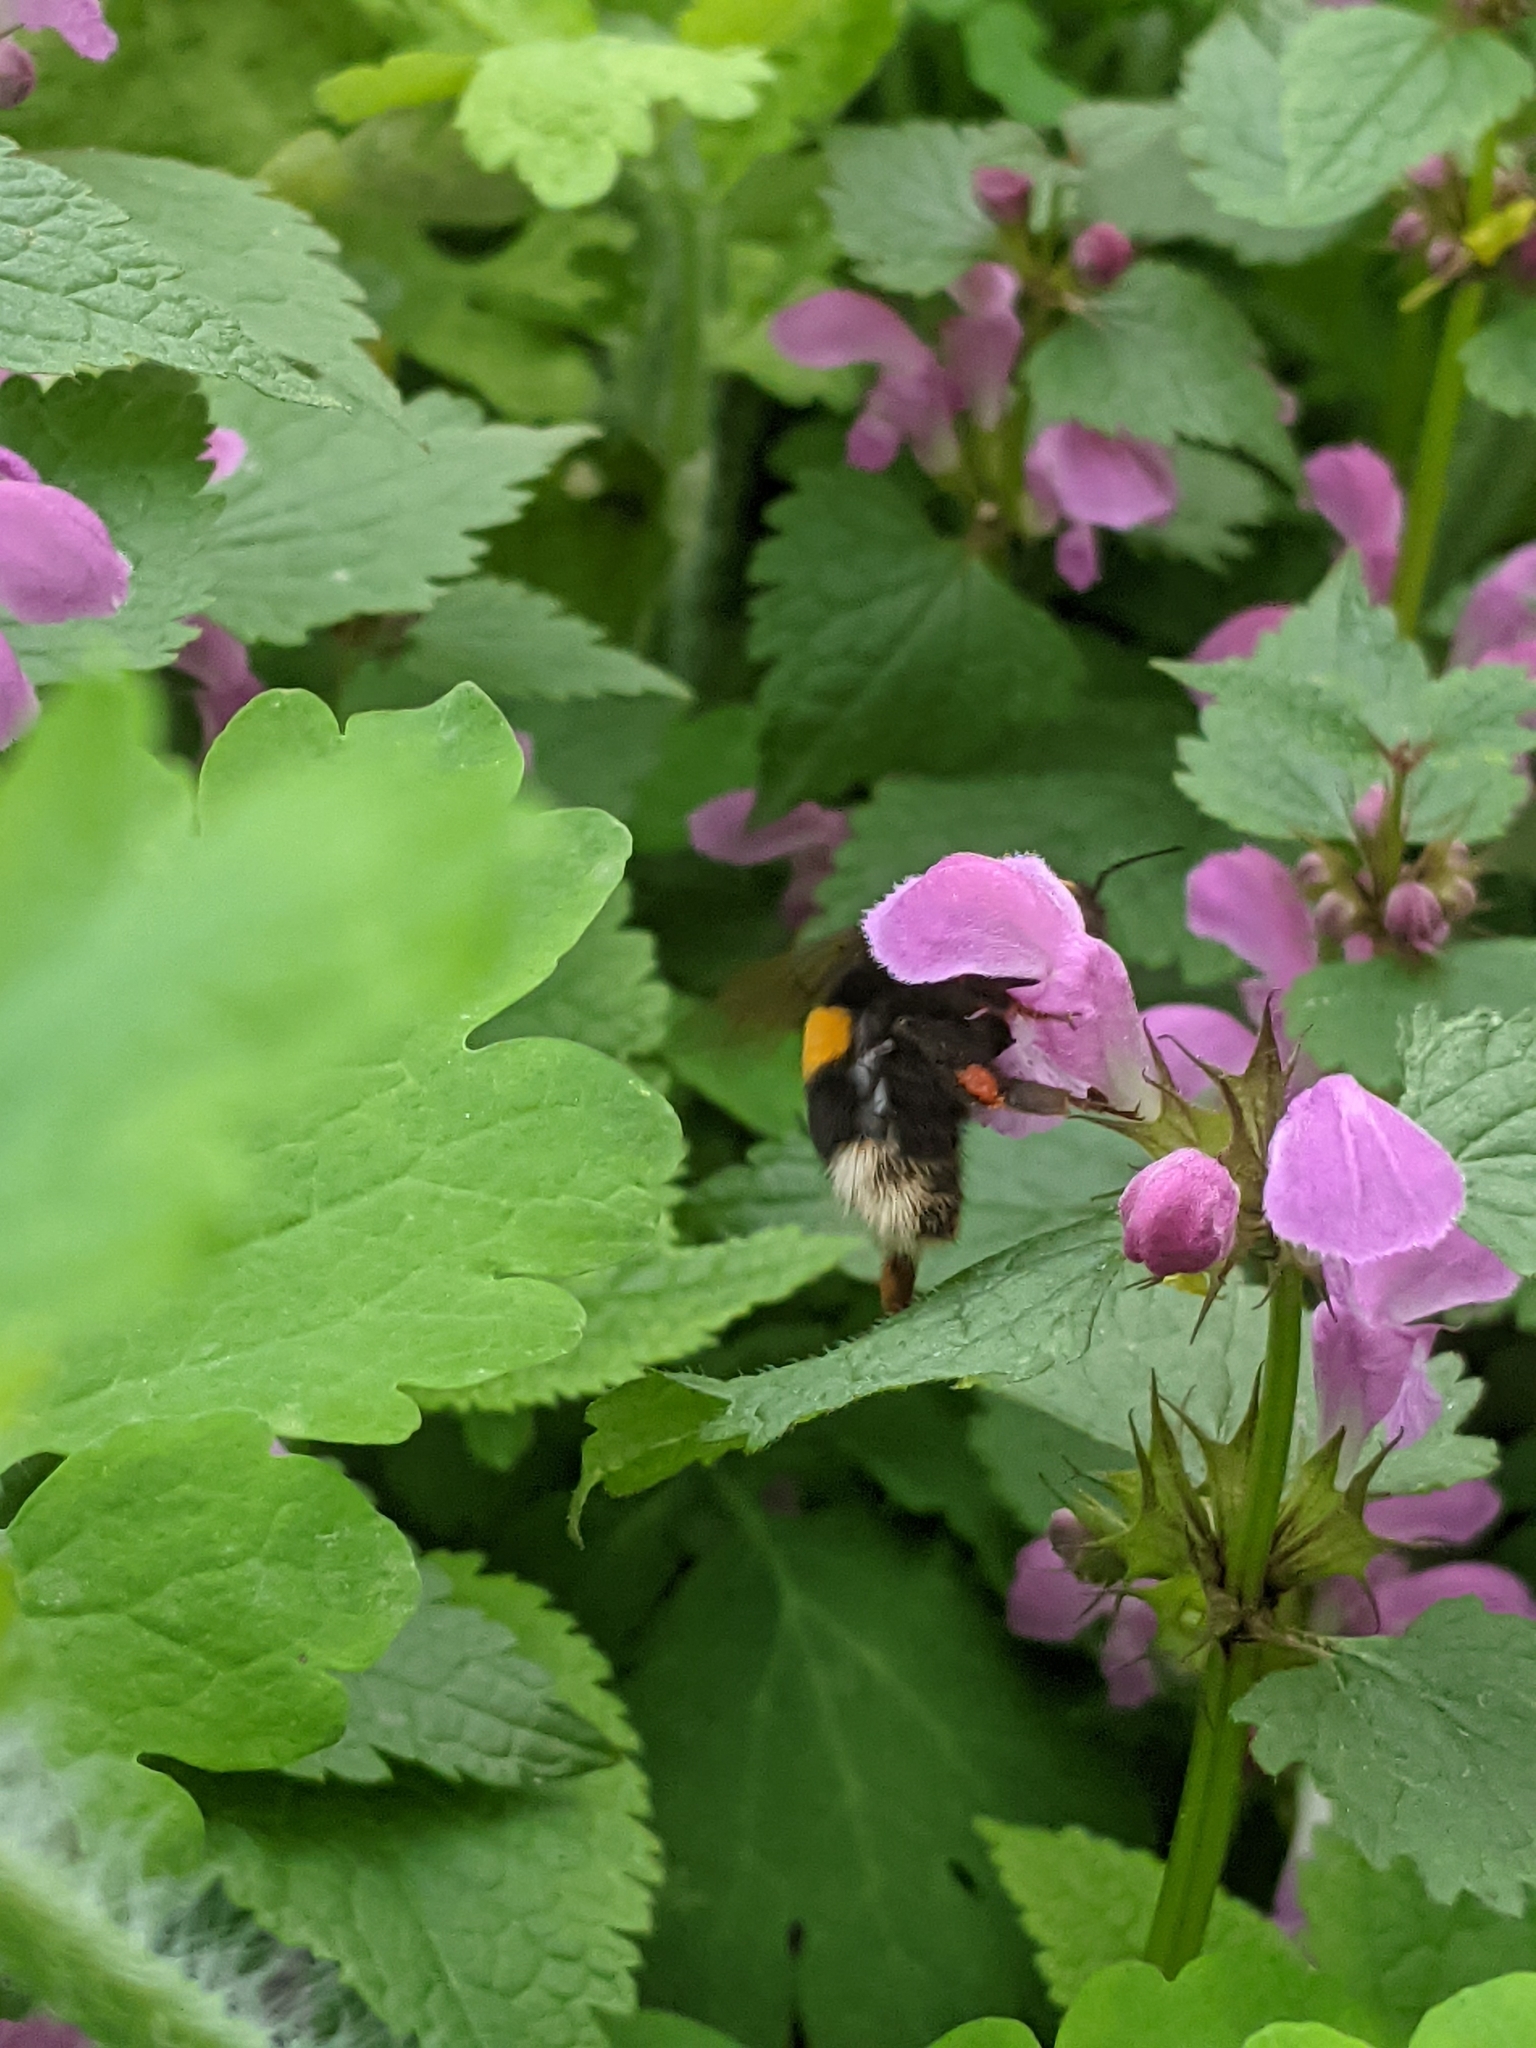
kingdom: Animalia
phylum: Arthropoda
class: Insecta
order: Hymenoptera
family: Apidae
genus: Bombus
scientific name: Bombus
